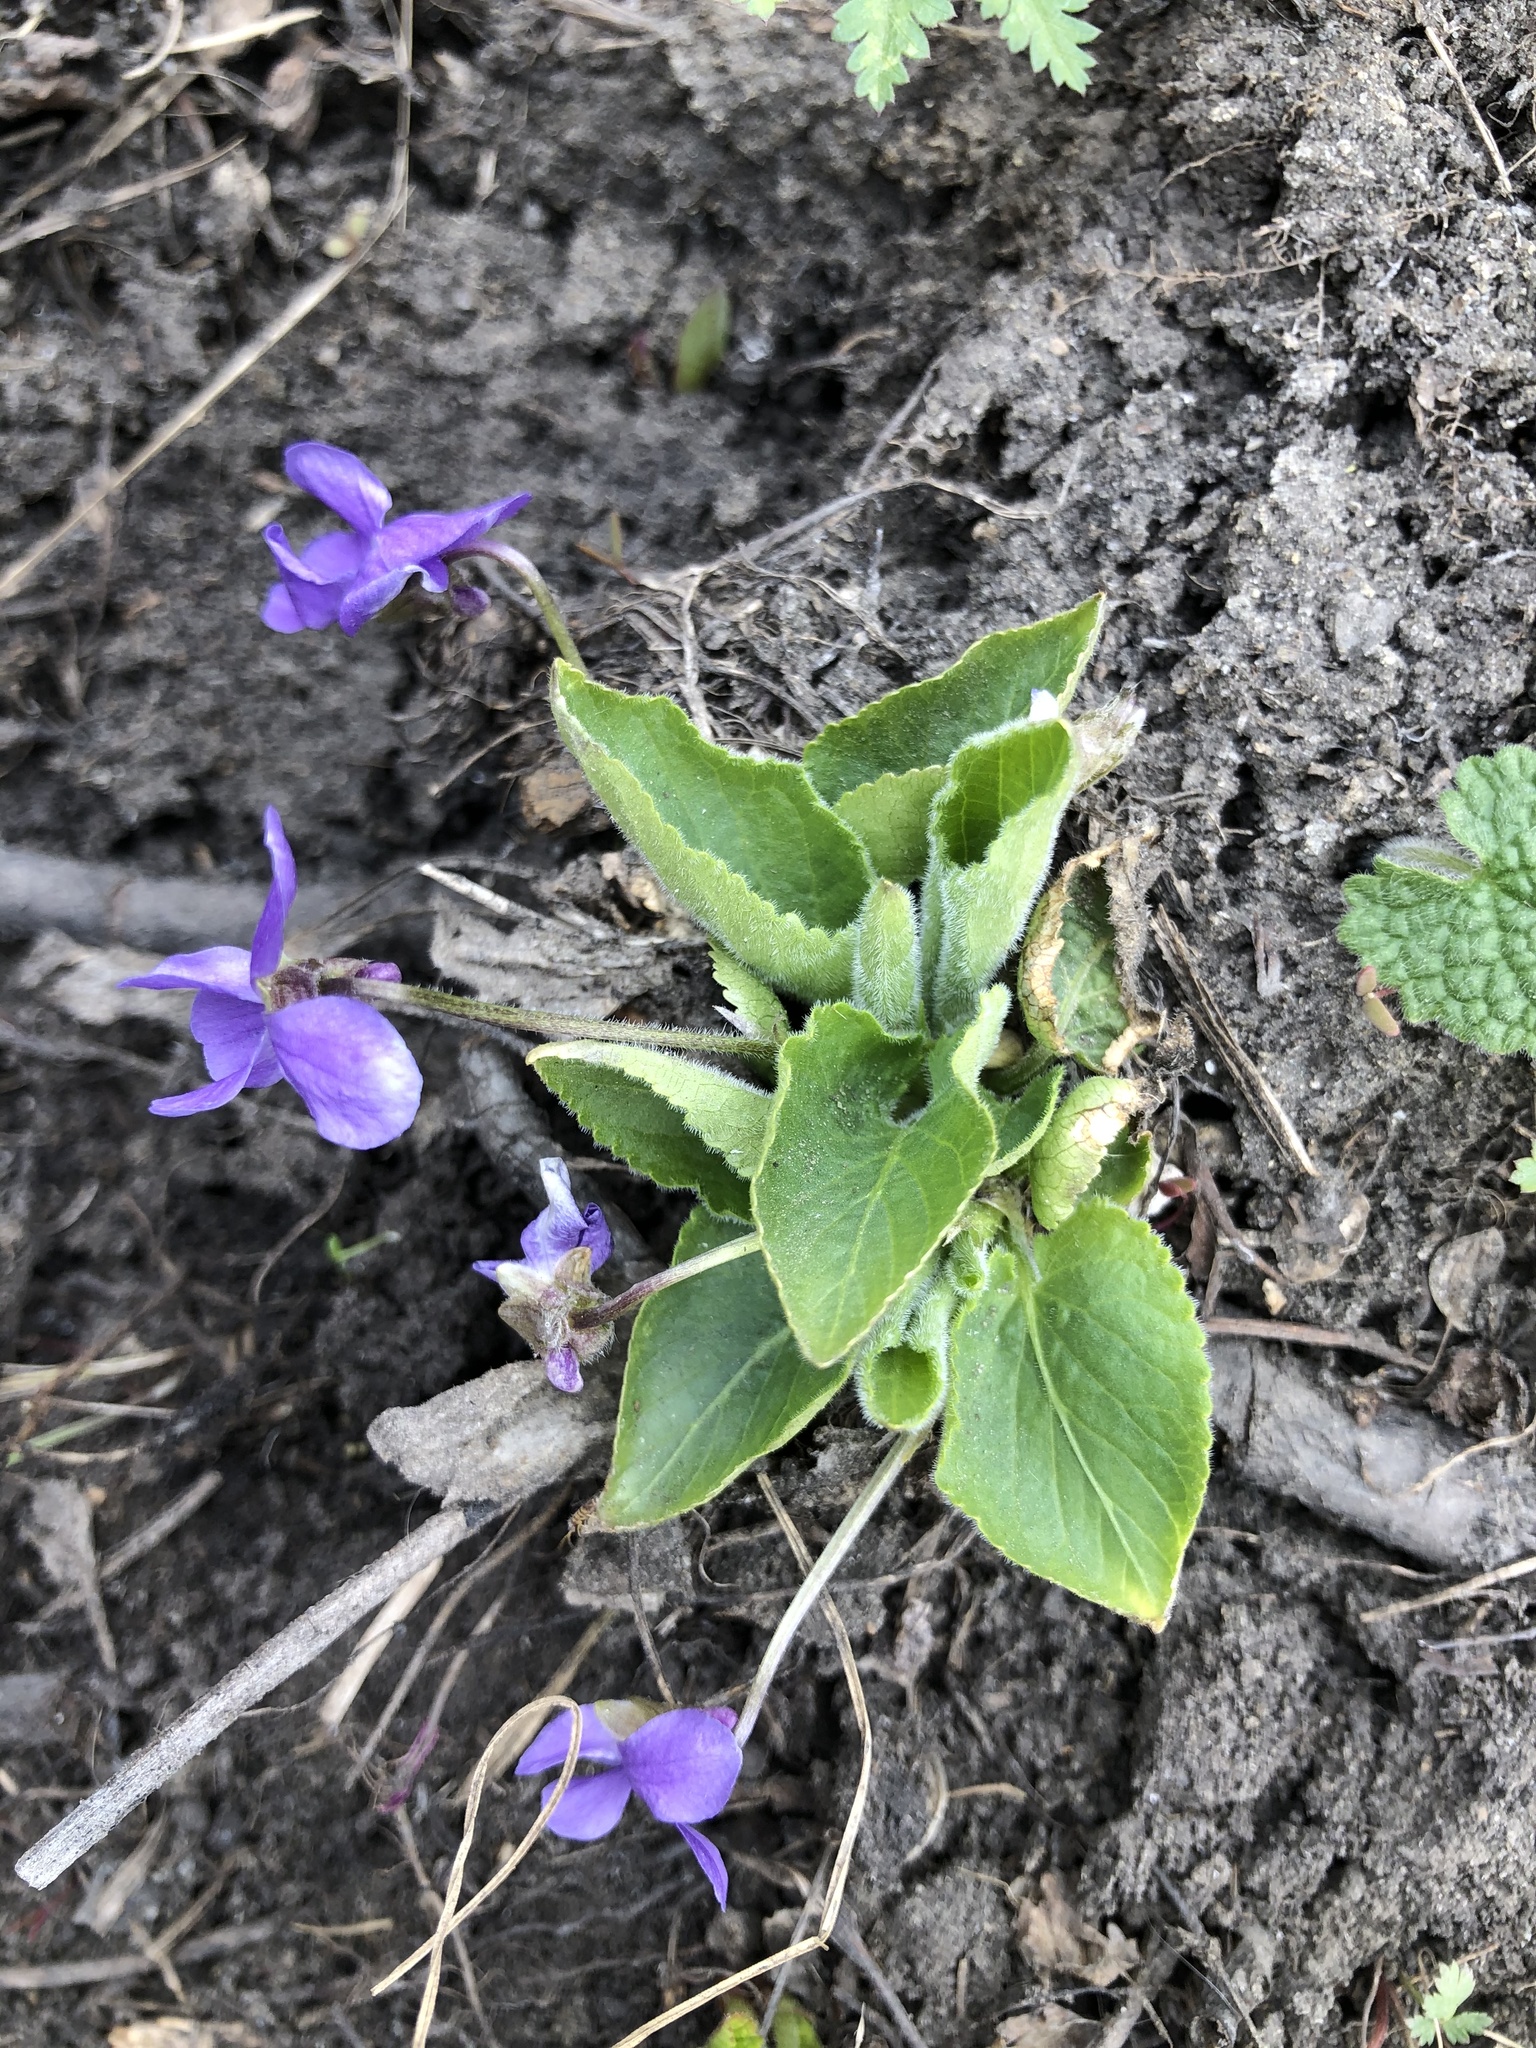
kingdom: Plantae
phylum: Tracheophyta
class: Magnoliopsida
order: Malpighiales
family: Violaceae
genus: Viola
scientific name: Viola hirta
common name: Hairy violet
